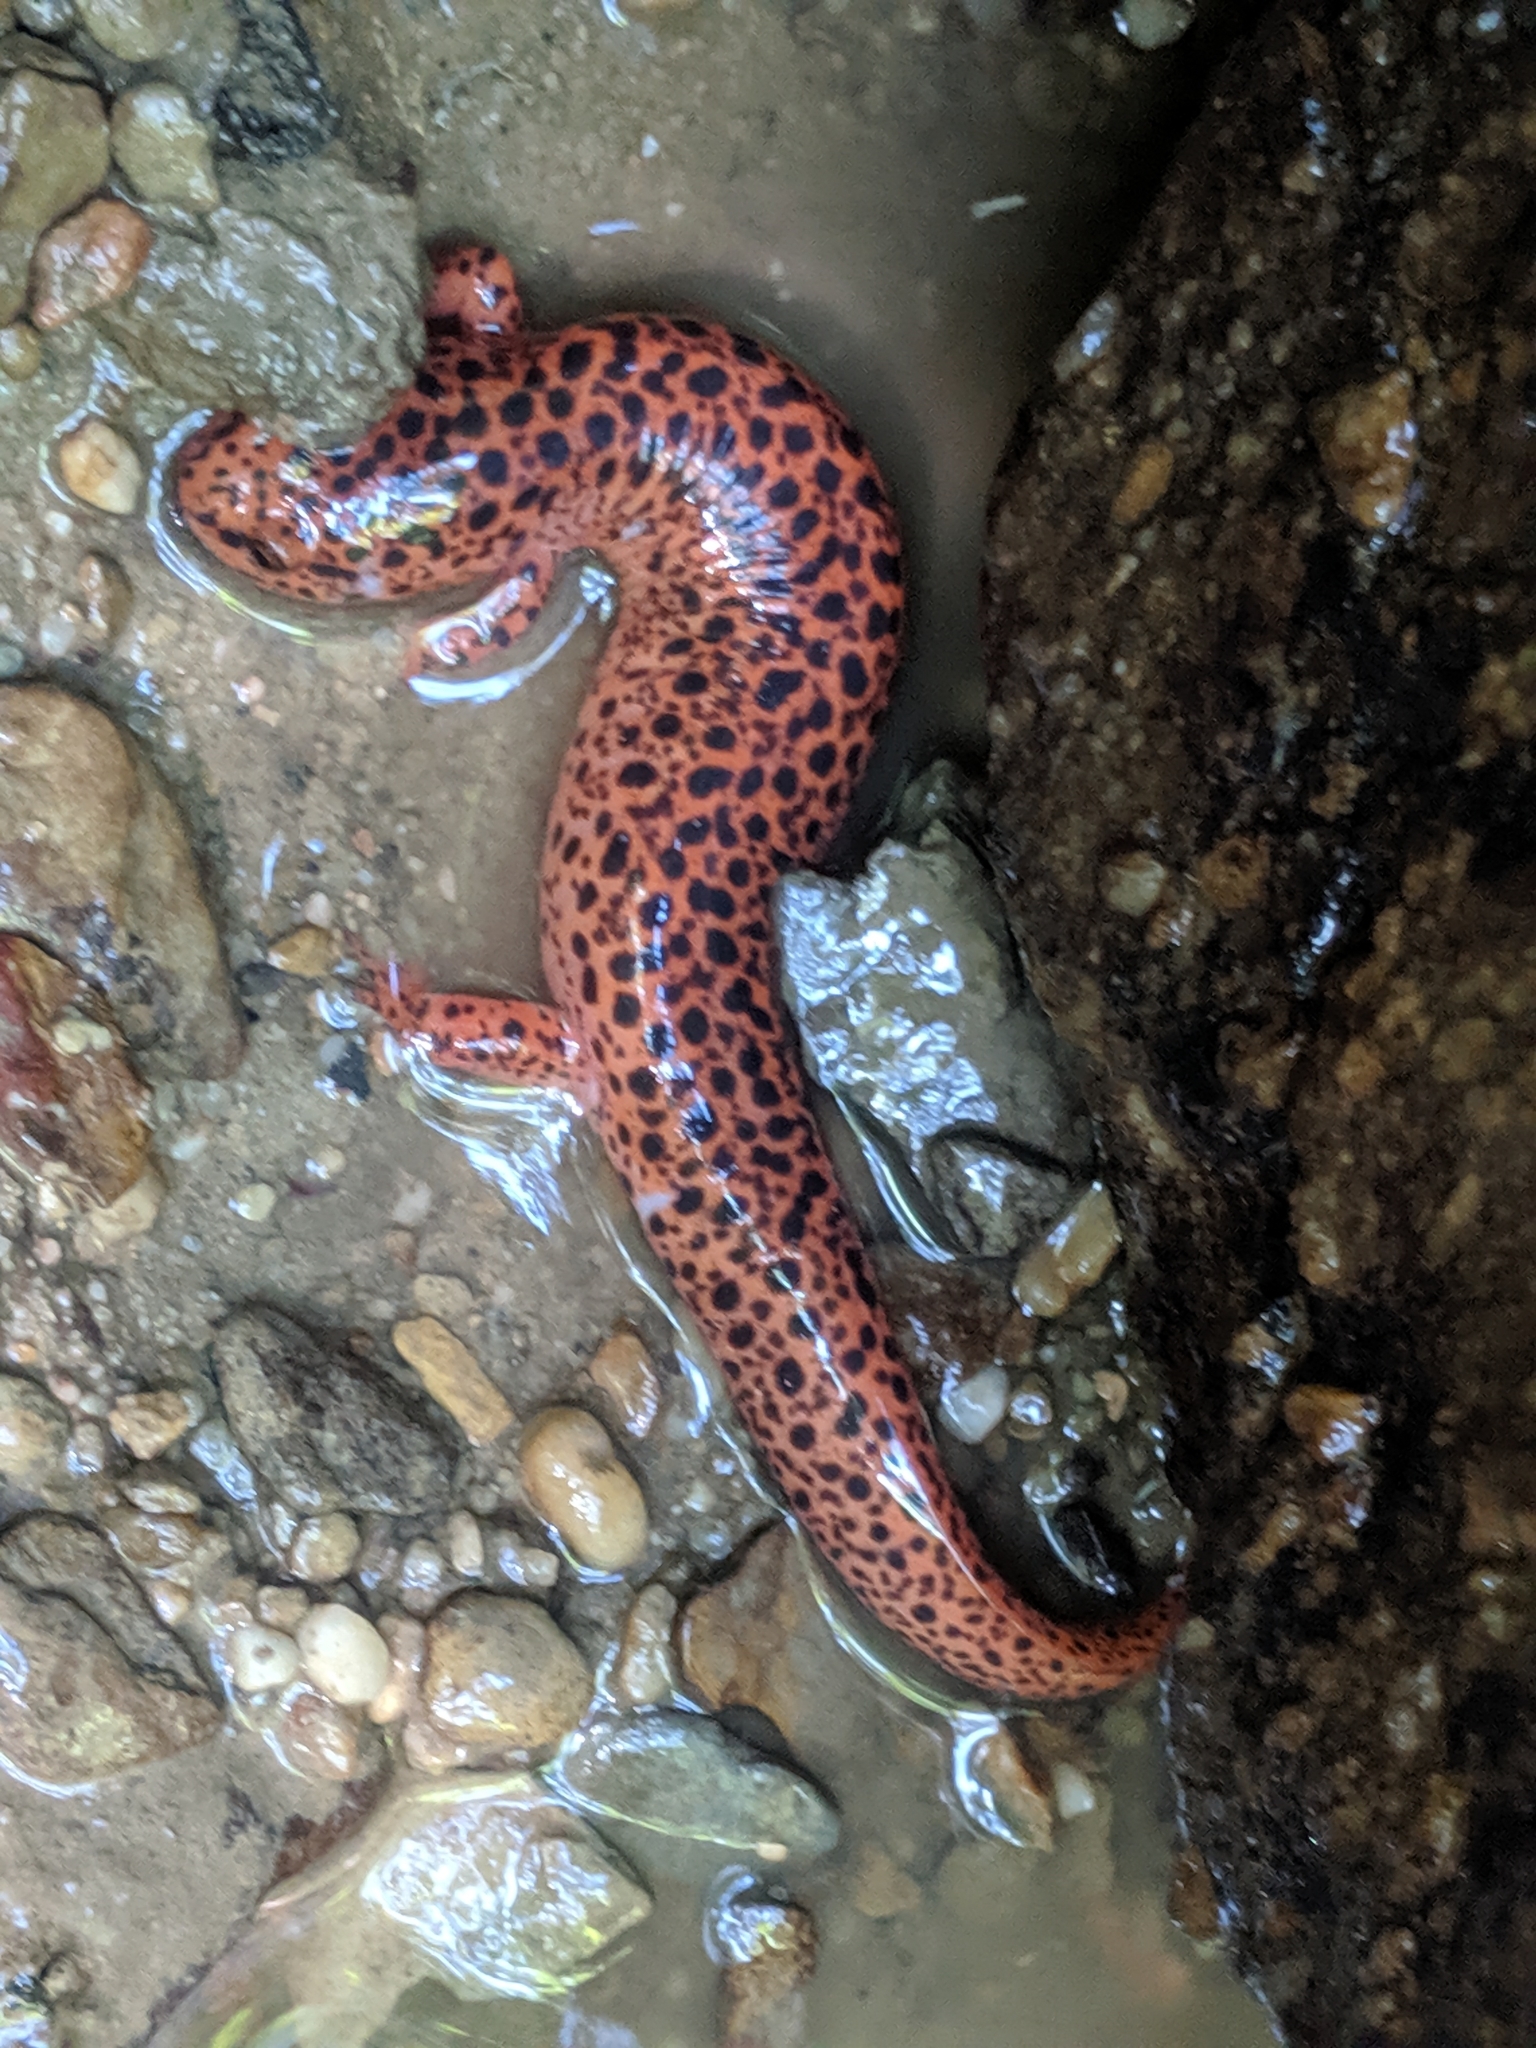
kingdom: Animalia
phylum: Chordata
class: Amphibia
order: Caudata
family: Plethodontidae
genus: Pseudotriton
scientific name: Pseudotriton ruber
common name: Red salamander
